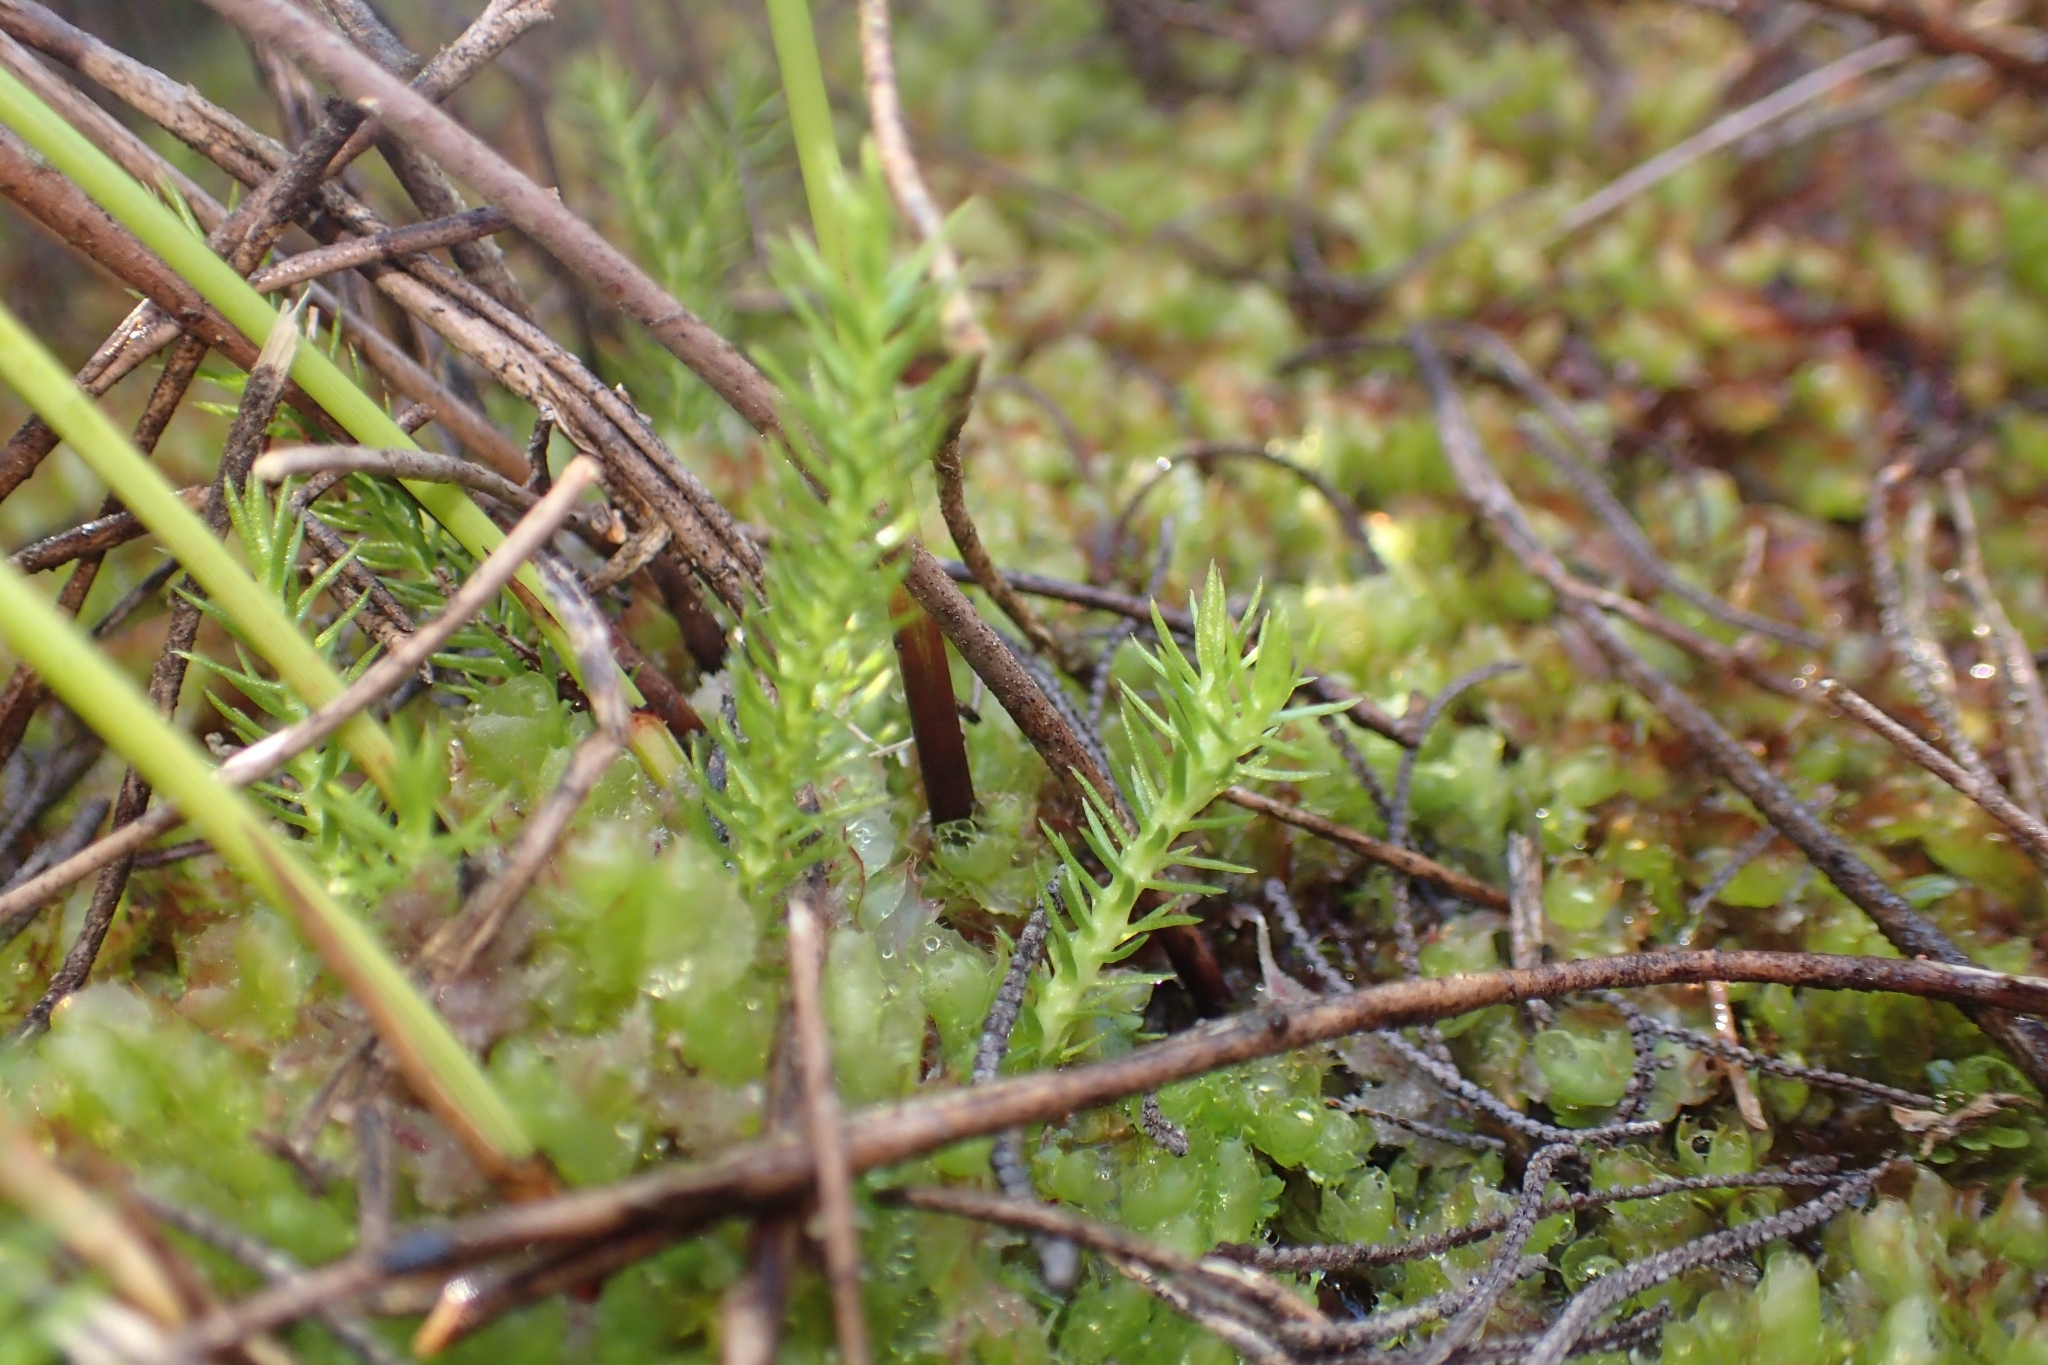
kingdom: Plantae
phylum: Tracheophyta
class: Lycopodiopsida
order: Lycopodiales
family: Lycopodiaceae
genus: Lateristachys
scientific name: Lateristachys lateralis
